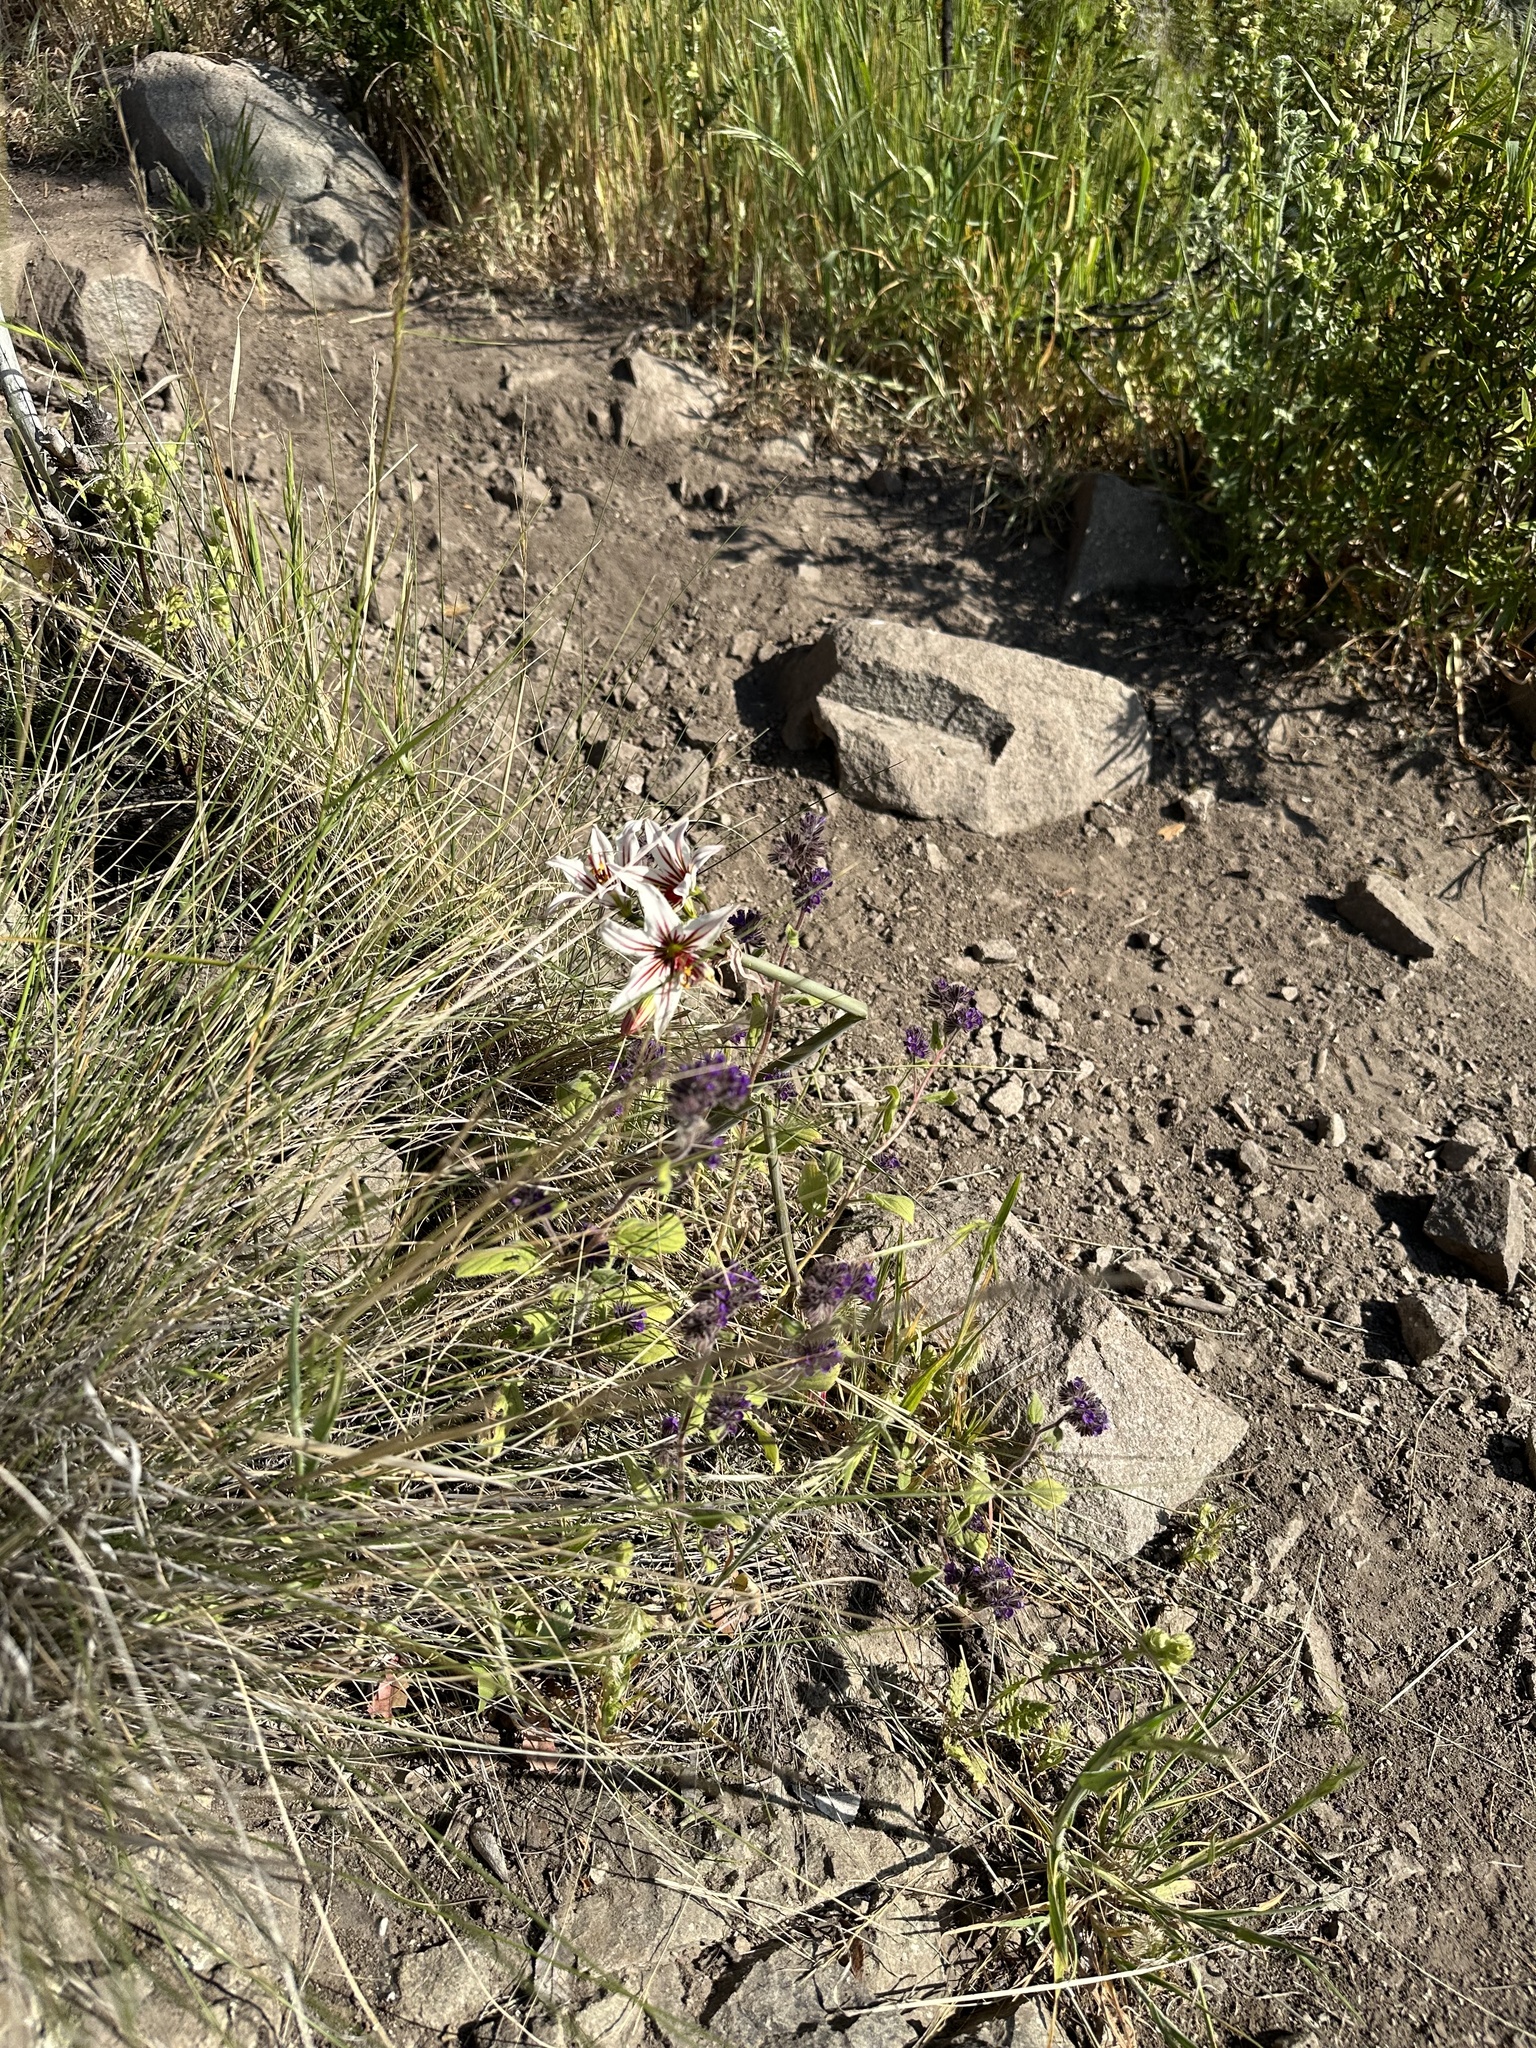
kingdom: Plantae
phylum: Tracheophyta
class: Liliopsida
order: Asparagales
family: Amaryllidaceae
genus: Phycella
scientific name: Phycella arzae
